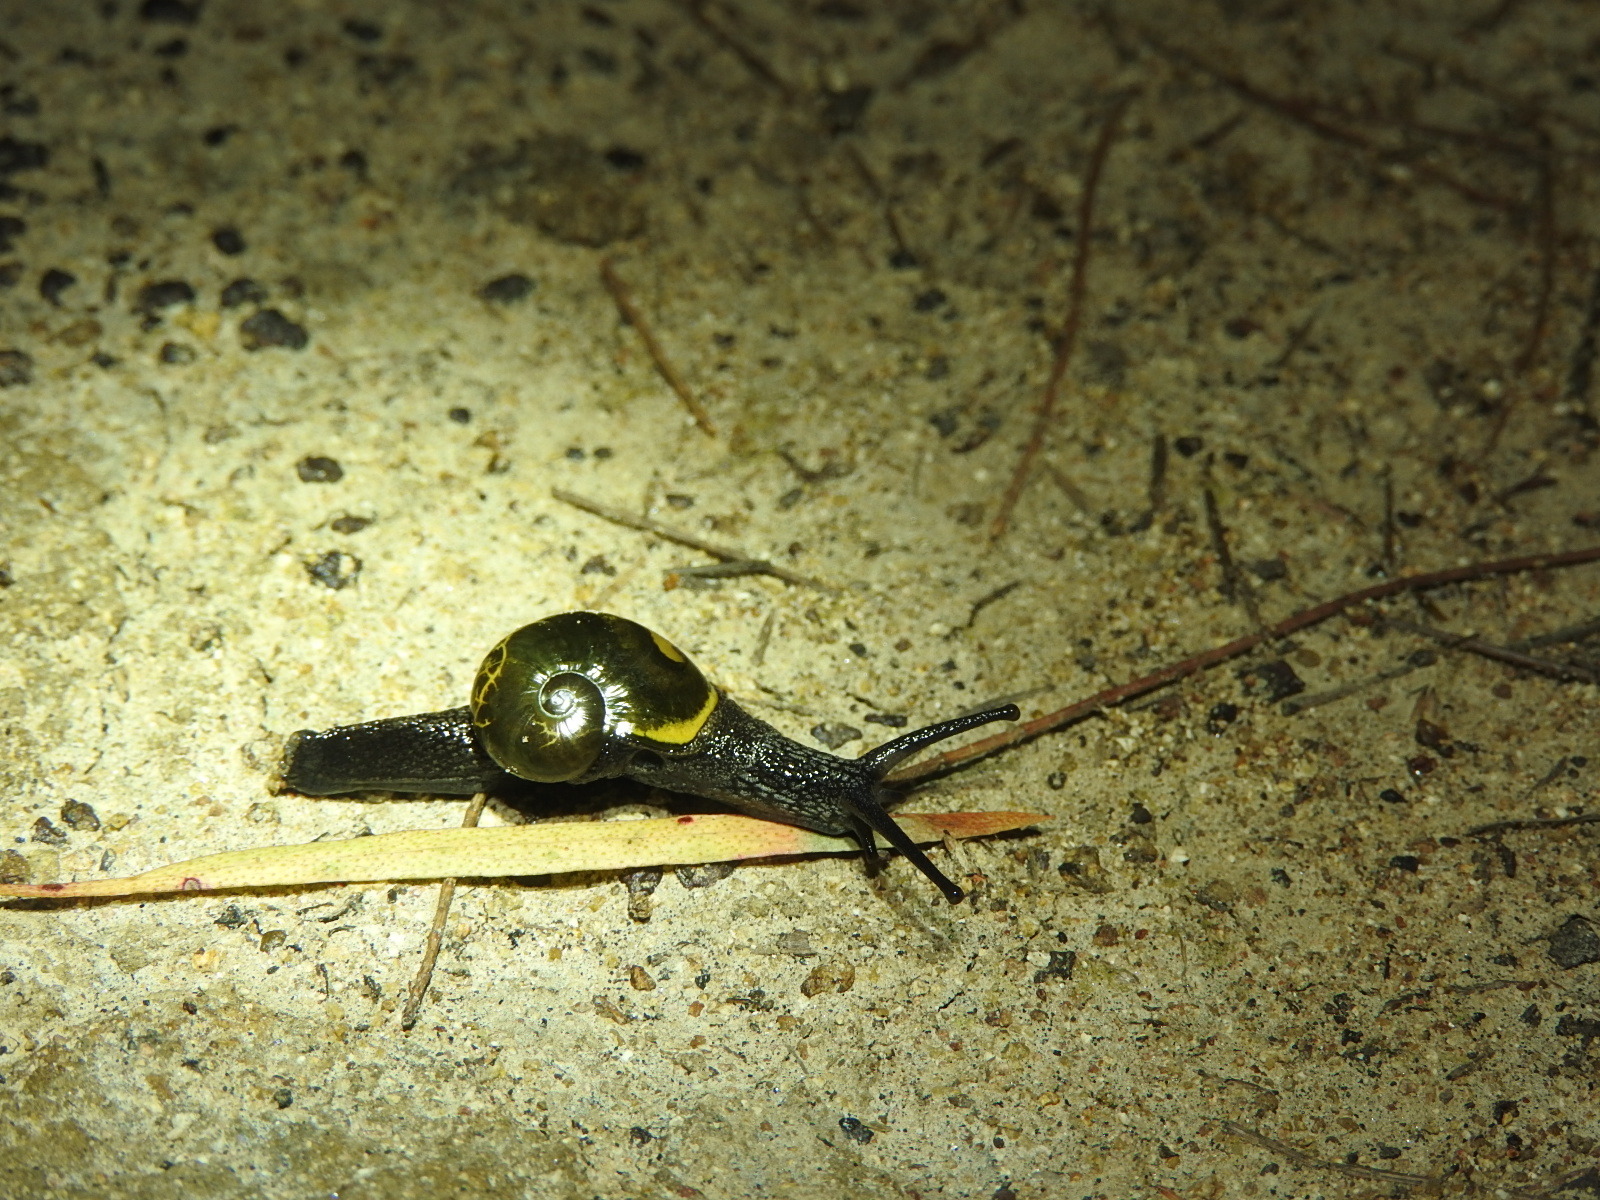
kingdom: Animalia
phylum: Mollusca
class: Gastropoda
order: Stylommatophora
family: Helicarionidae
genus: Helicarion
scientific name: Helicarion cuvieri
